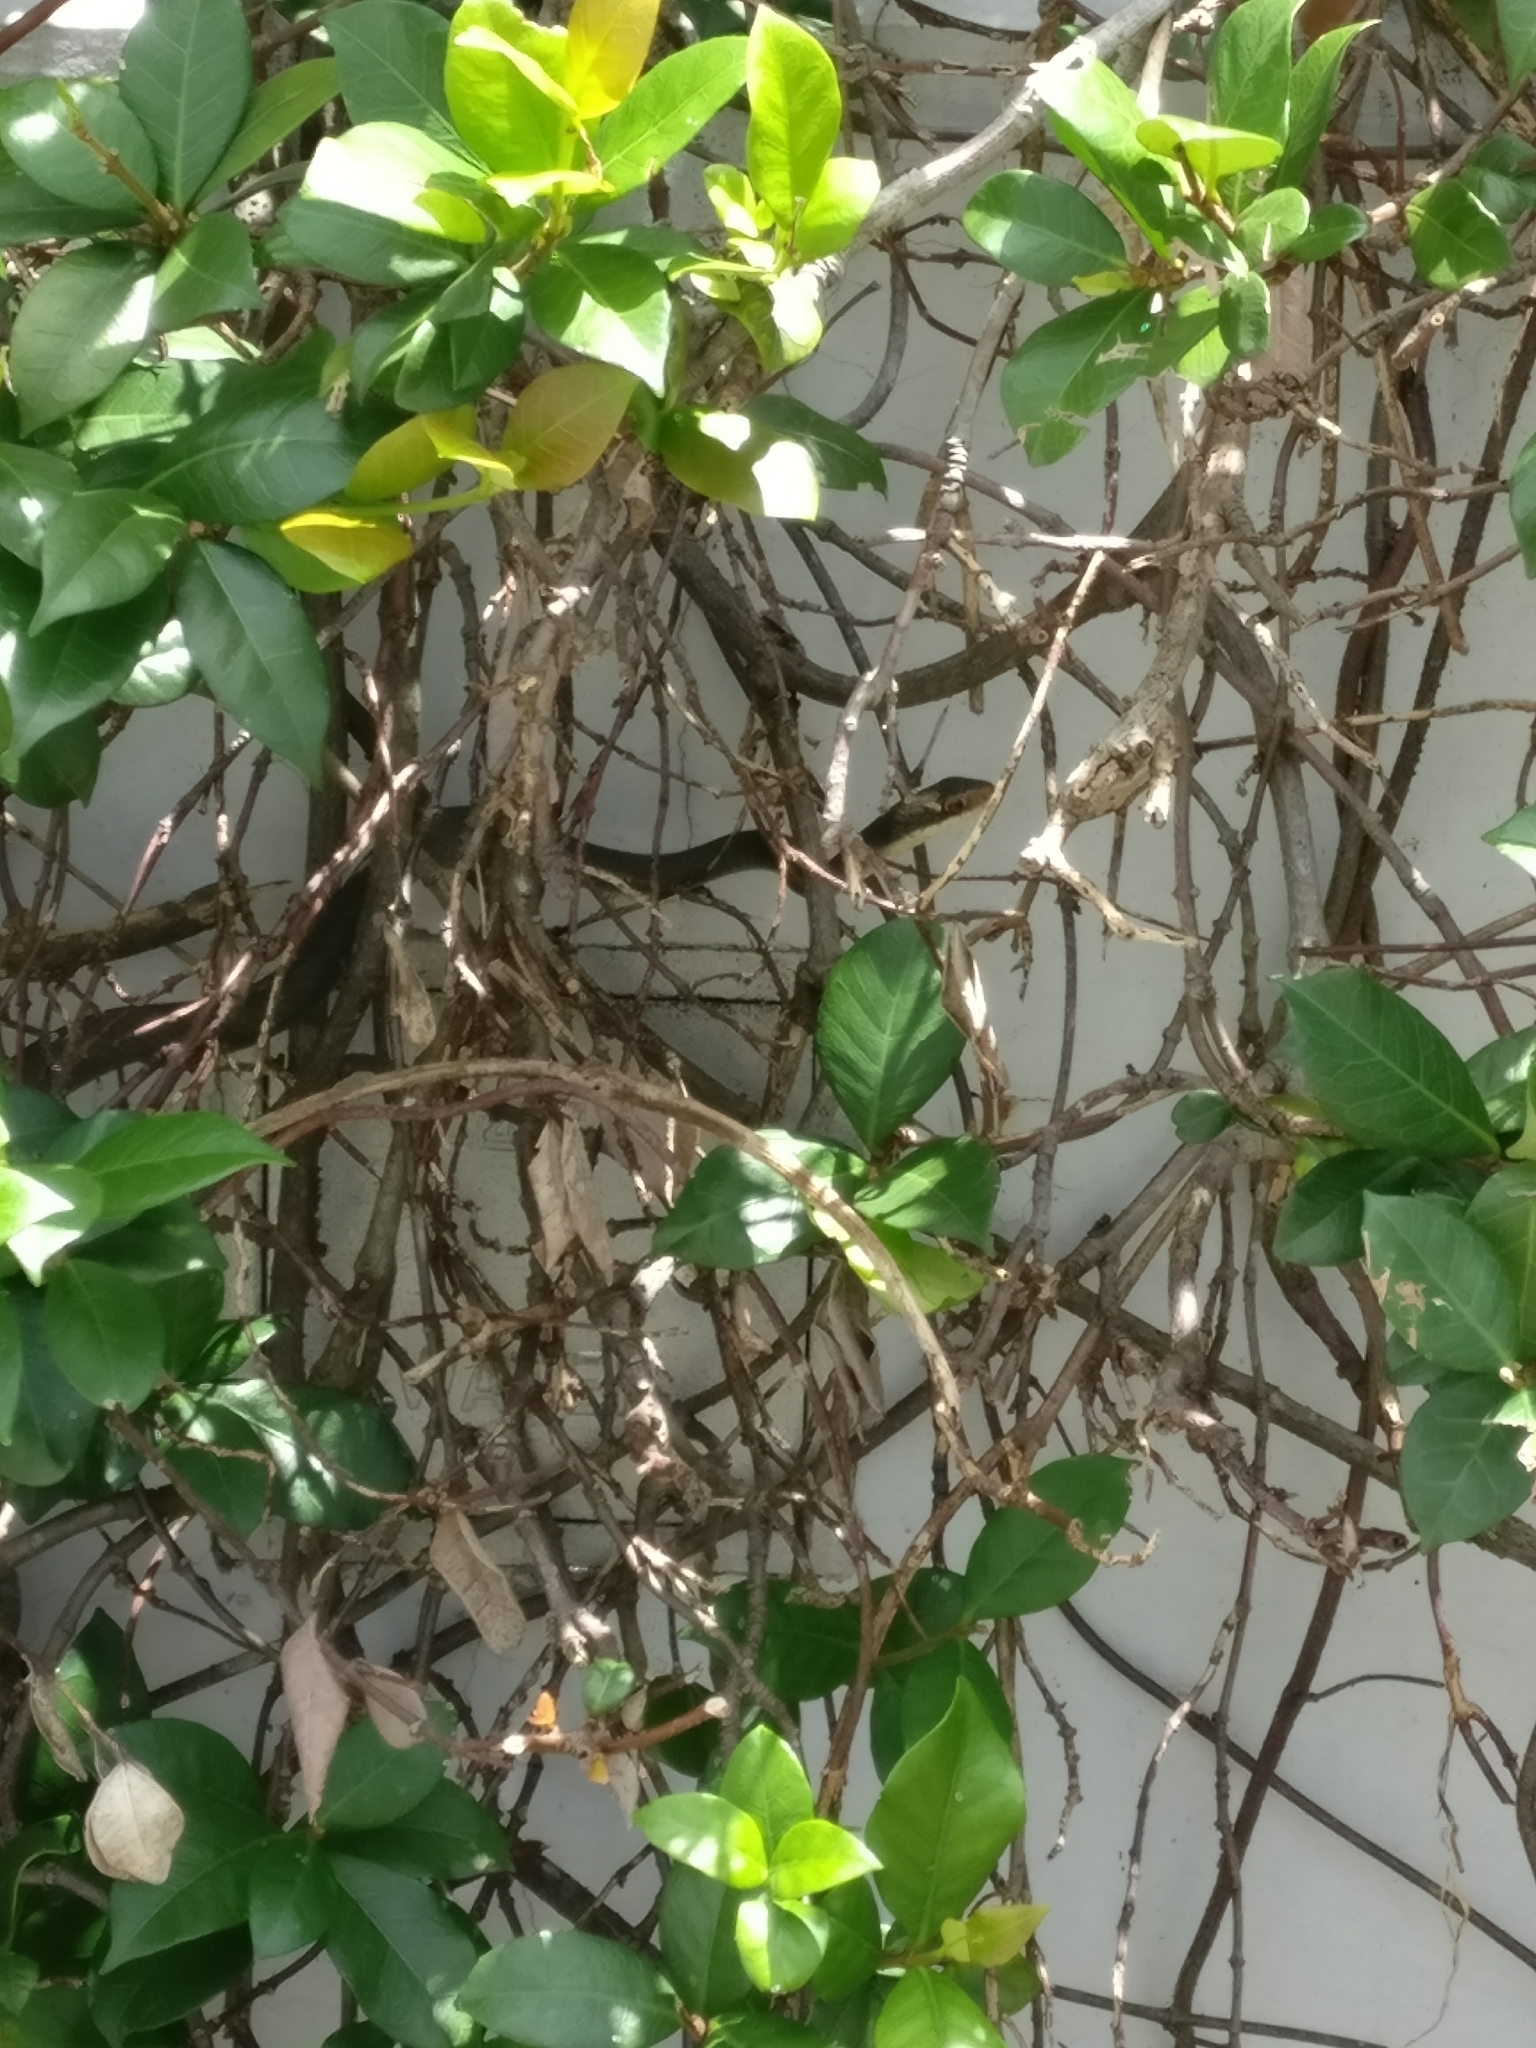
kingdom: Animalia
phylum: Chordata
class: Squamata
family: Colubridae
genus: Coluber
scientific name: Coluber constrictor
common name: Eastern racer
